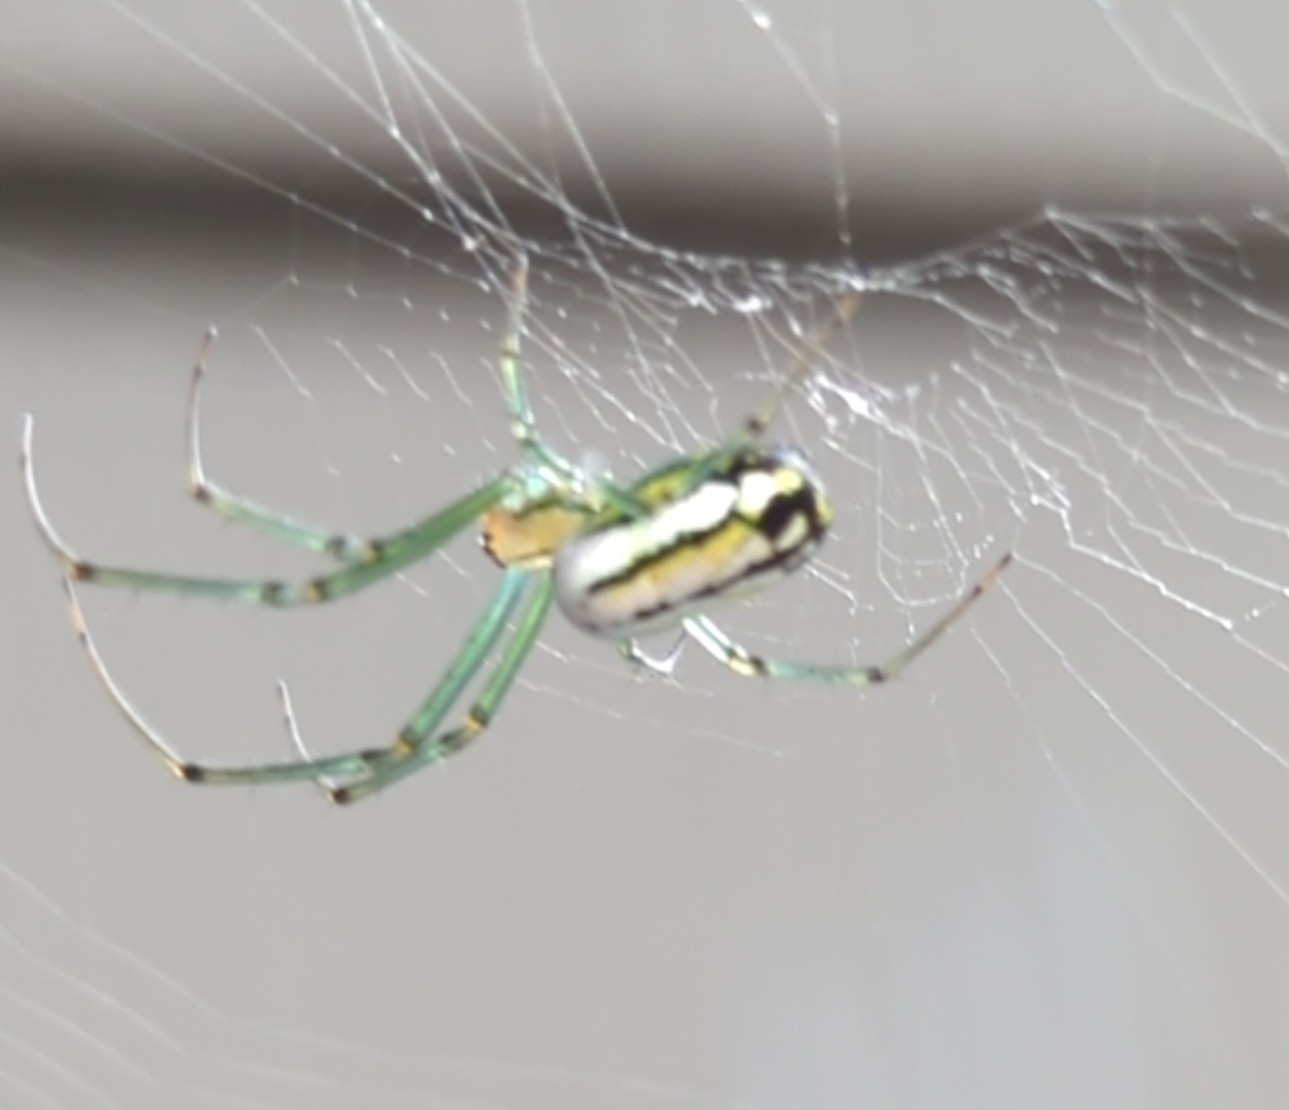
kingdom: Animalia
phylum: Arthropoda
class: Arachnida
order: Araneae
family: Tetragnathidae
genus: Leucauge
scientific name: Leucauge venusta
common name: Longjawed orb weavers
